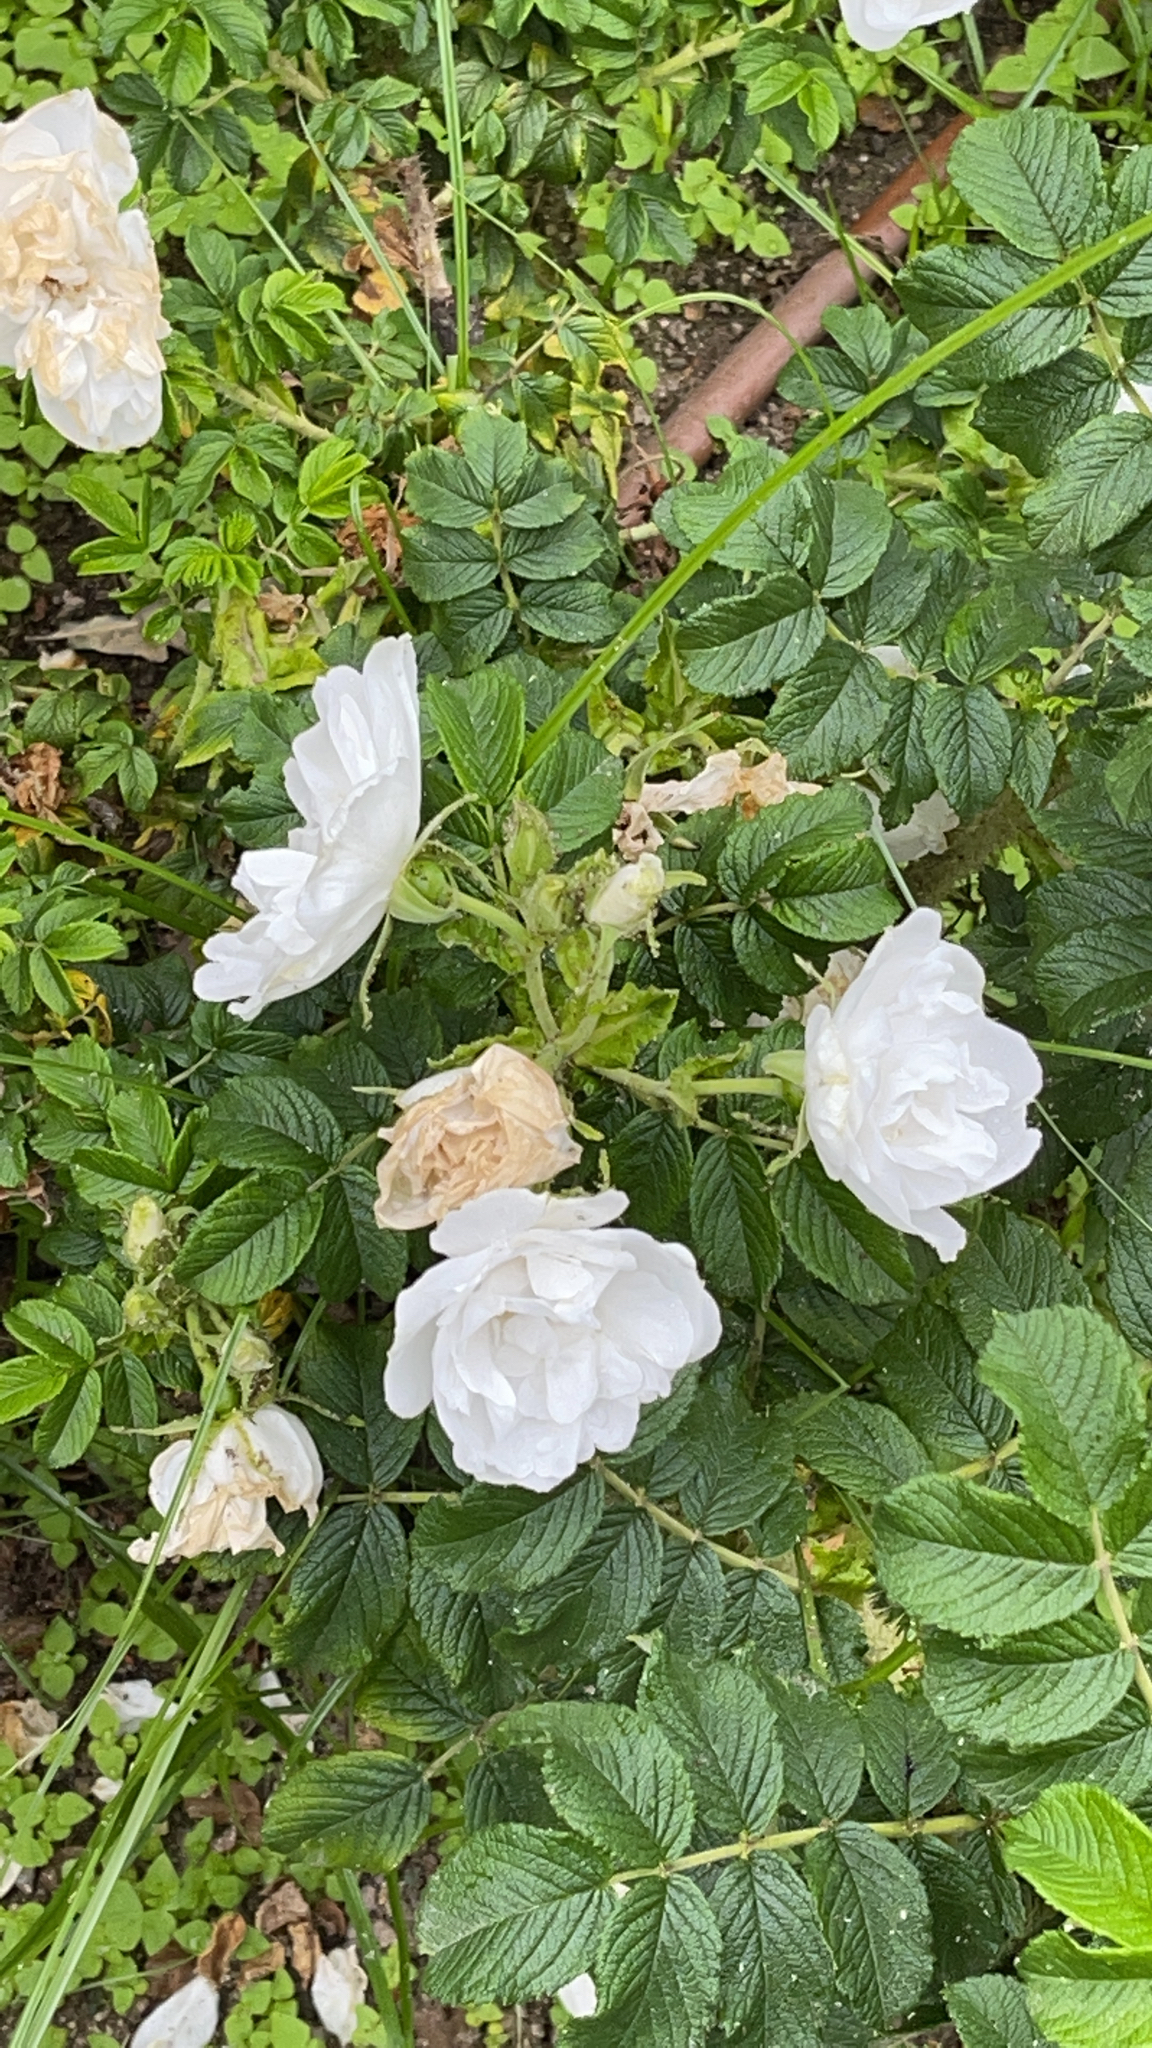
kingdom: Plantae
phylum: Tracheophyta
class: Magnoliopsida
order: Rosales
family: Rosaceae
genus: Rosa
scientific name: Rosa rugosa
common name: Japanese rose
